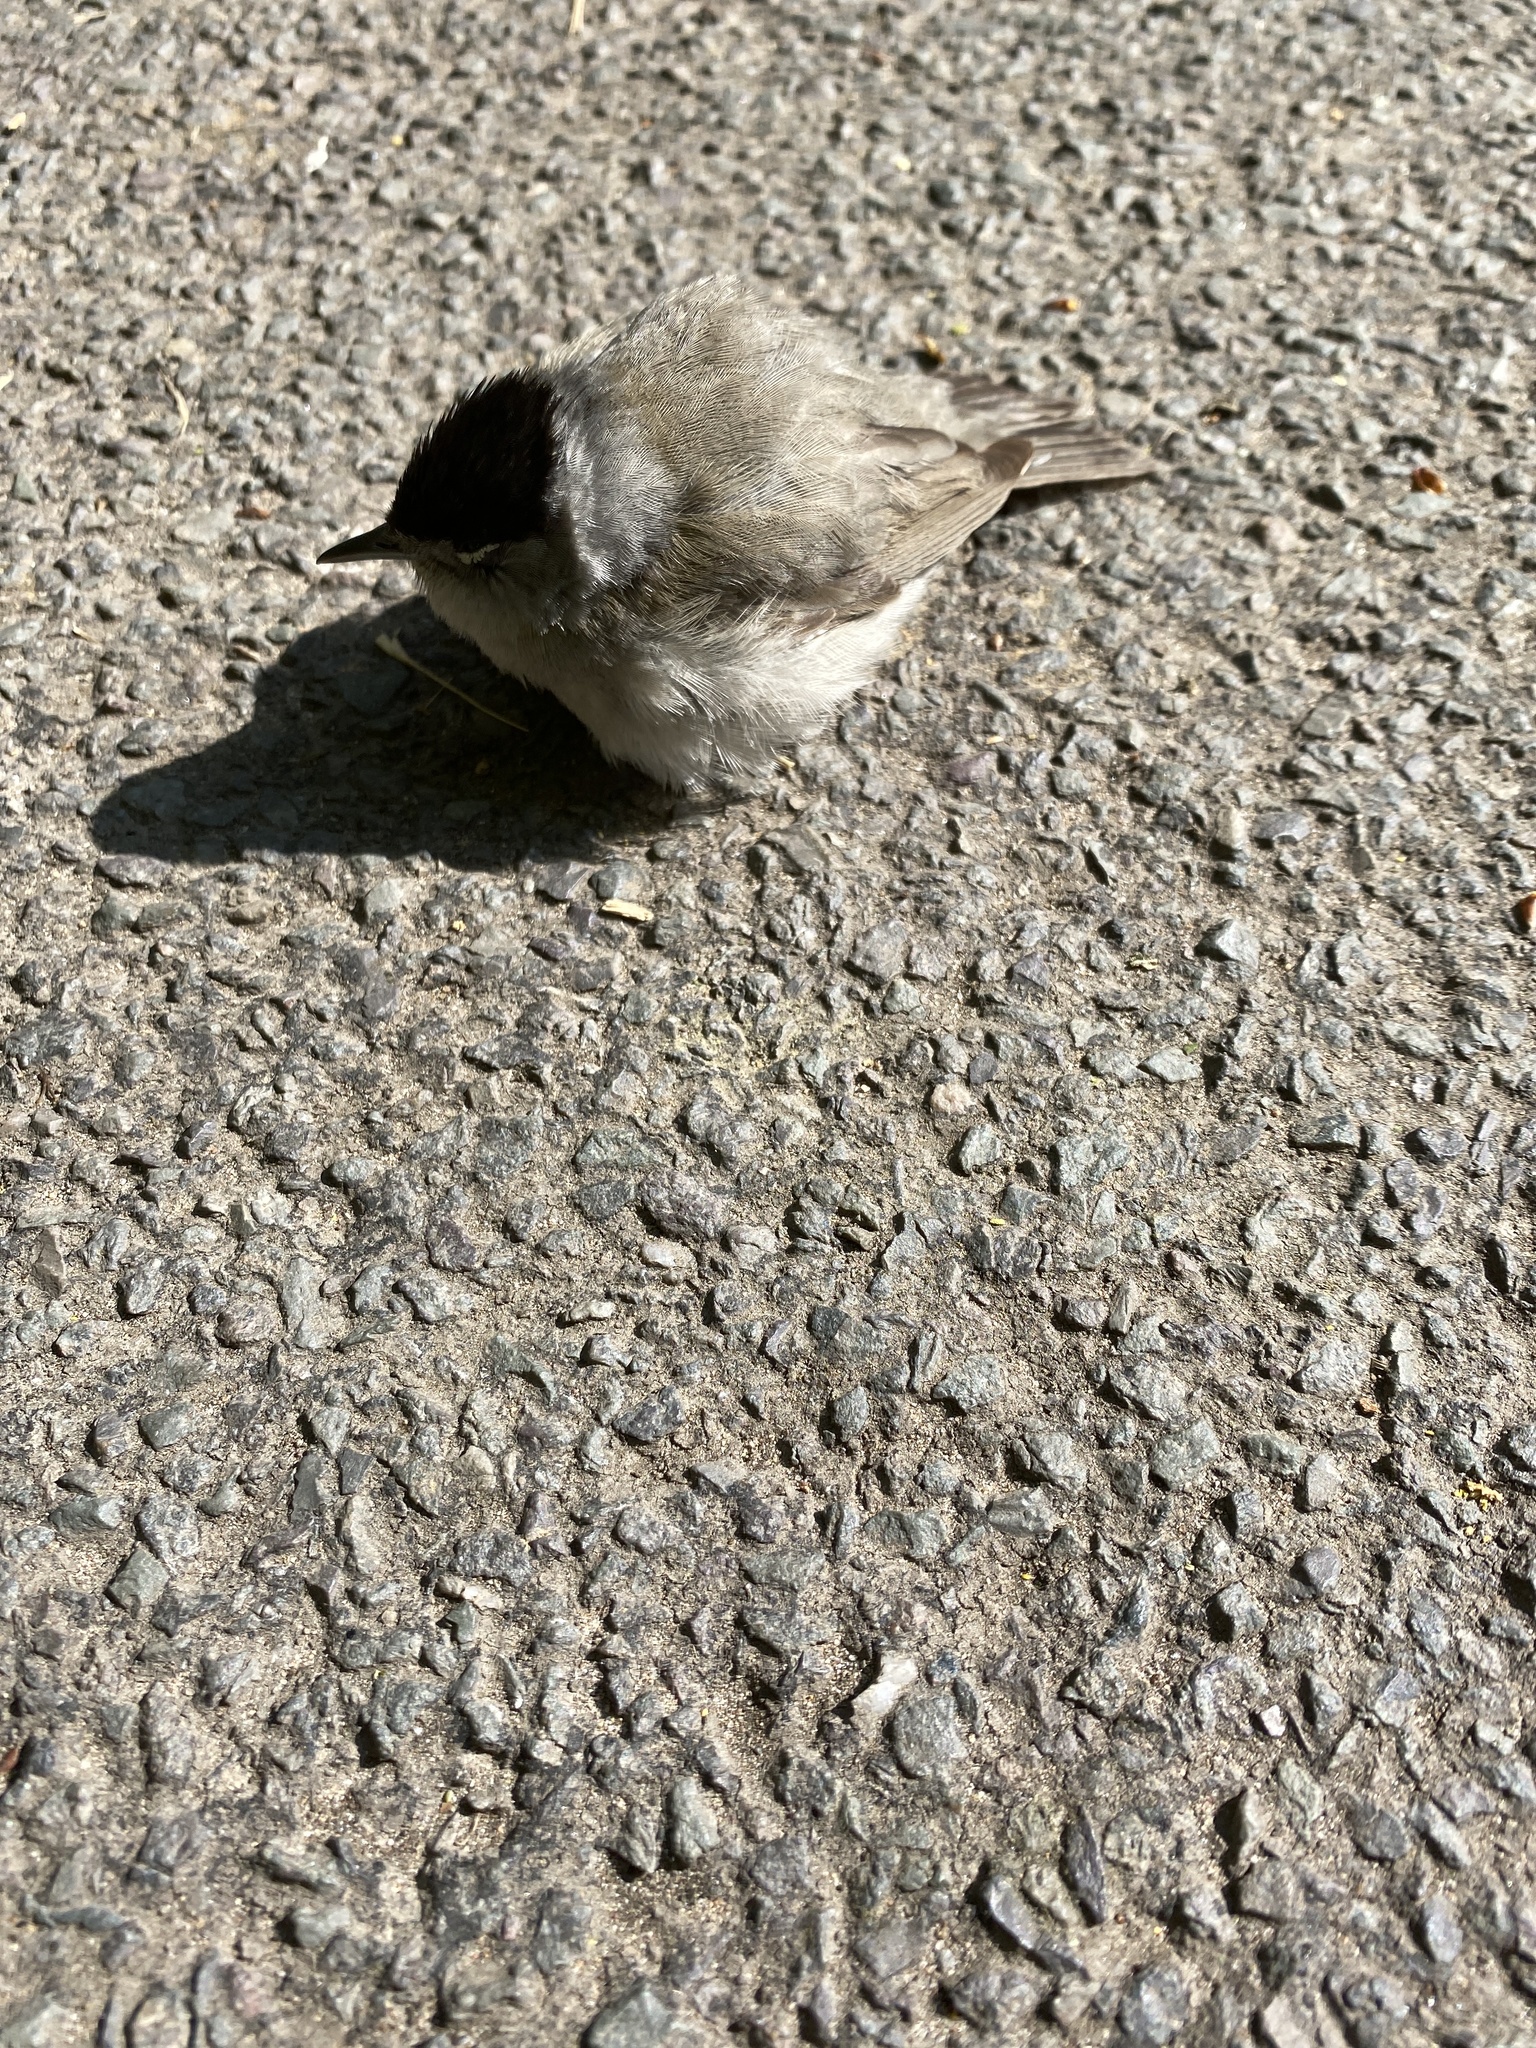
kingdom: Animalia
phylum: Chordata
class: Aves
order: Passeriformes
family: Sylviidae
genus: Sylvia
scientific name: Sylvia atricapilla
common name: Eurasian blackcap
